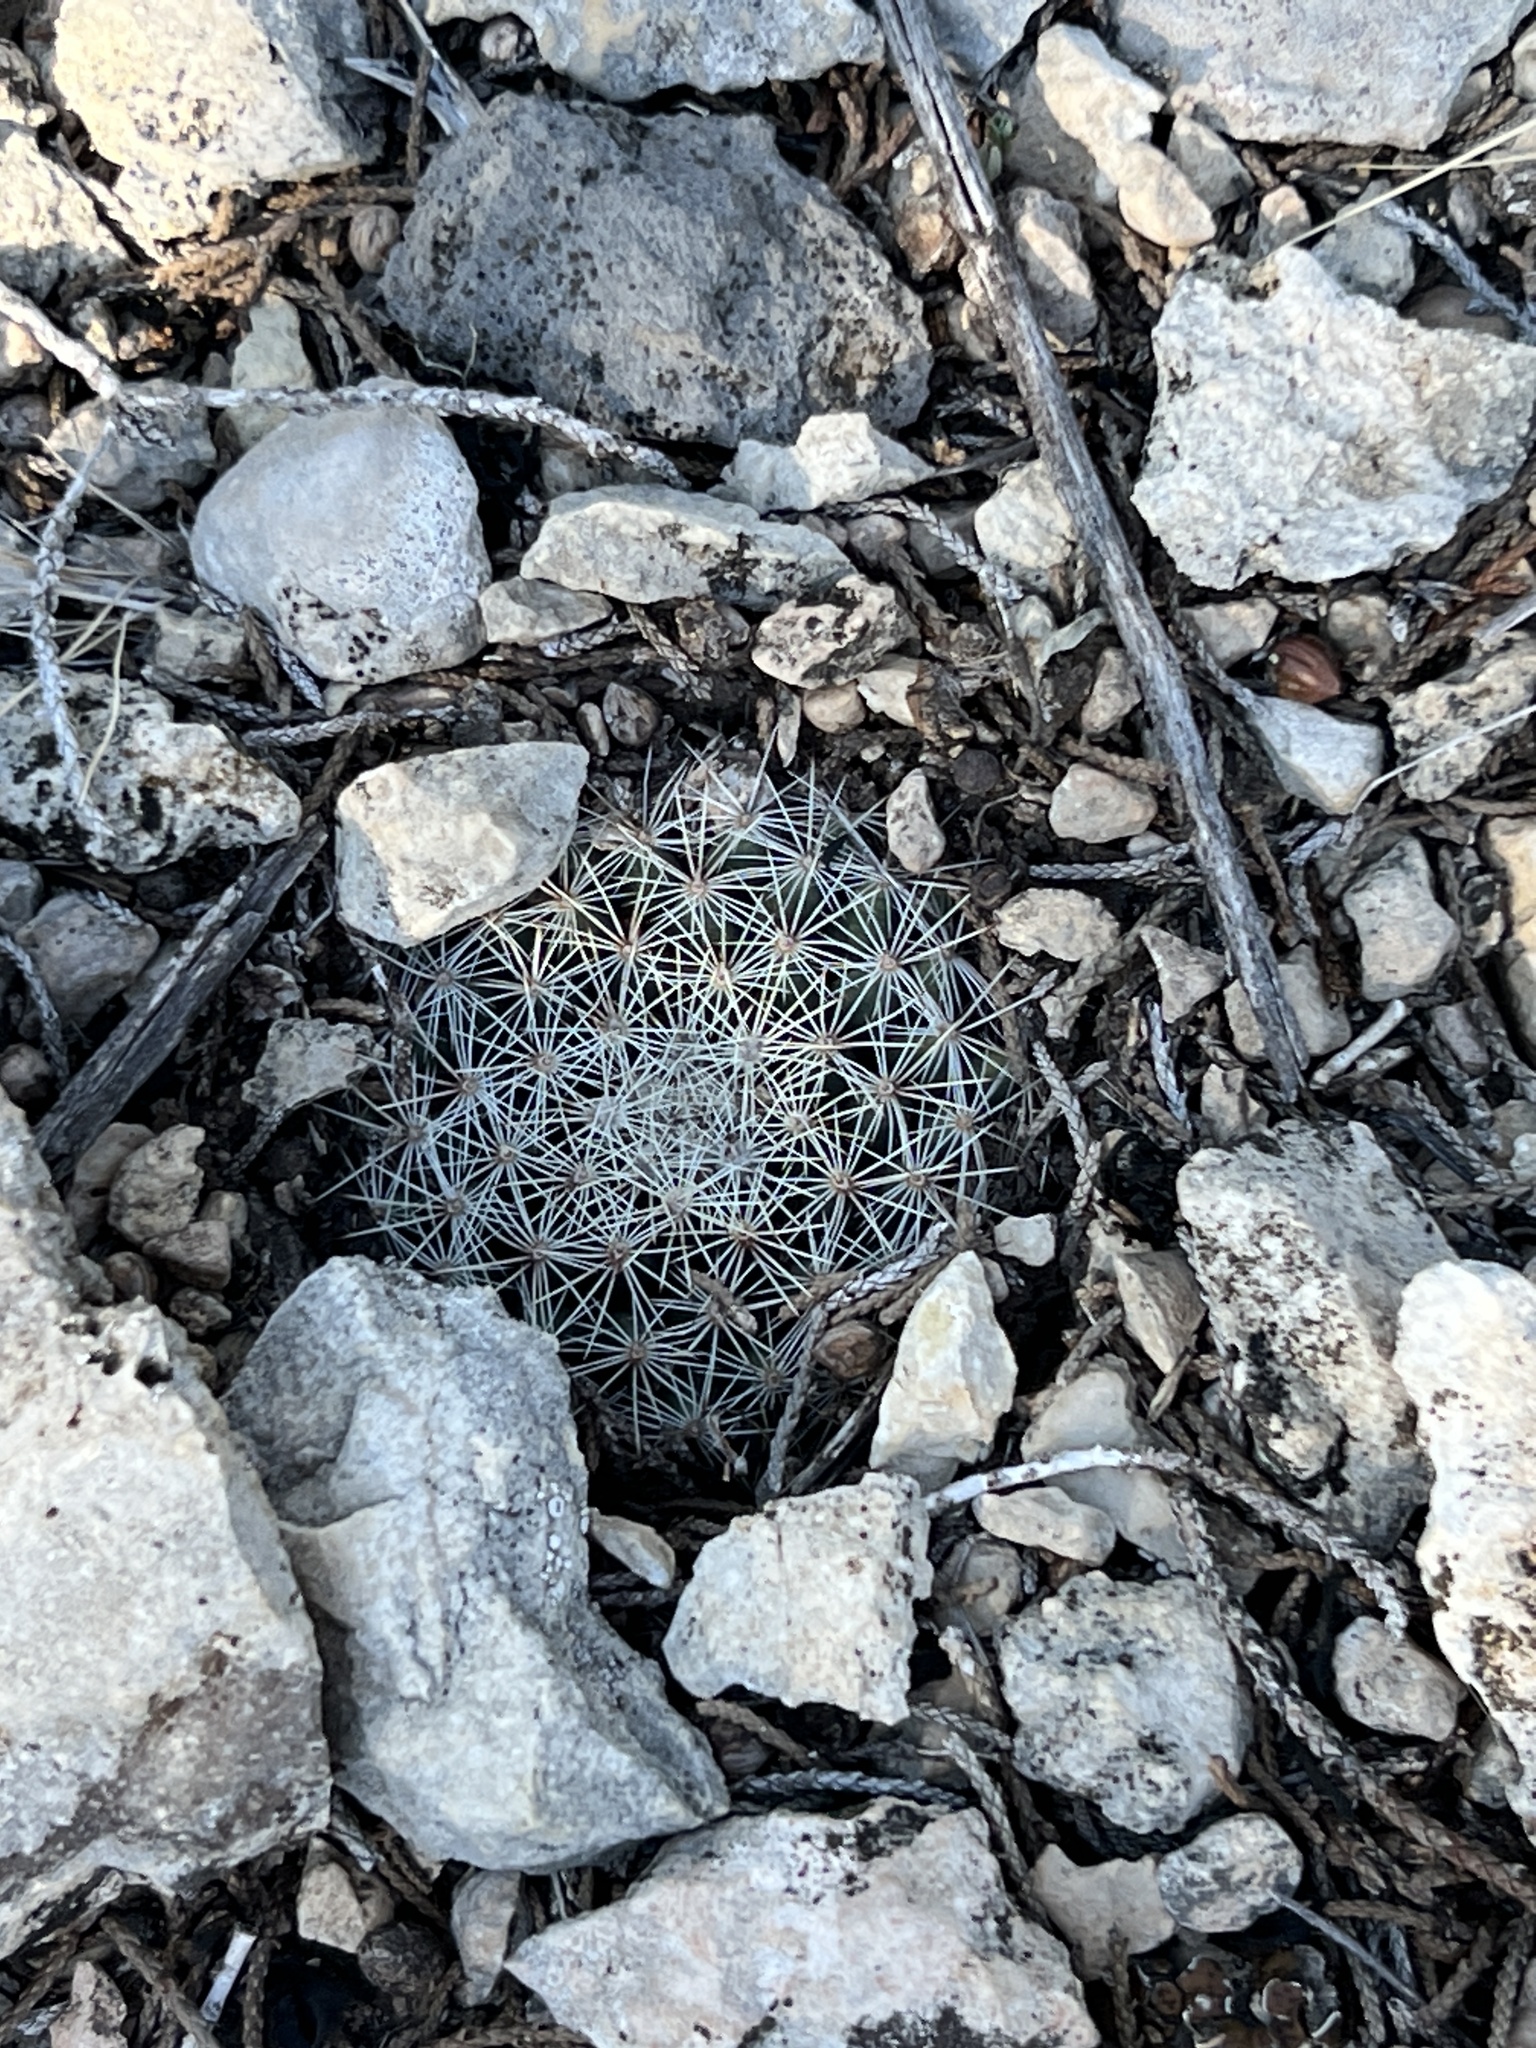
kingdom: Plantae
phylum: Tracheophyta
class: Magnoliopsida
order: Caryophyllales
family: Cactaceae
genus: Mammillaria
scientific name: Mammillaria heyderi
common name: Little nipple cactus
